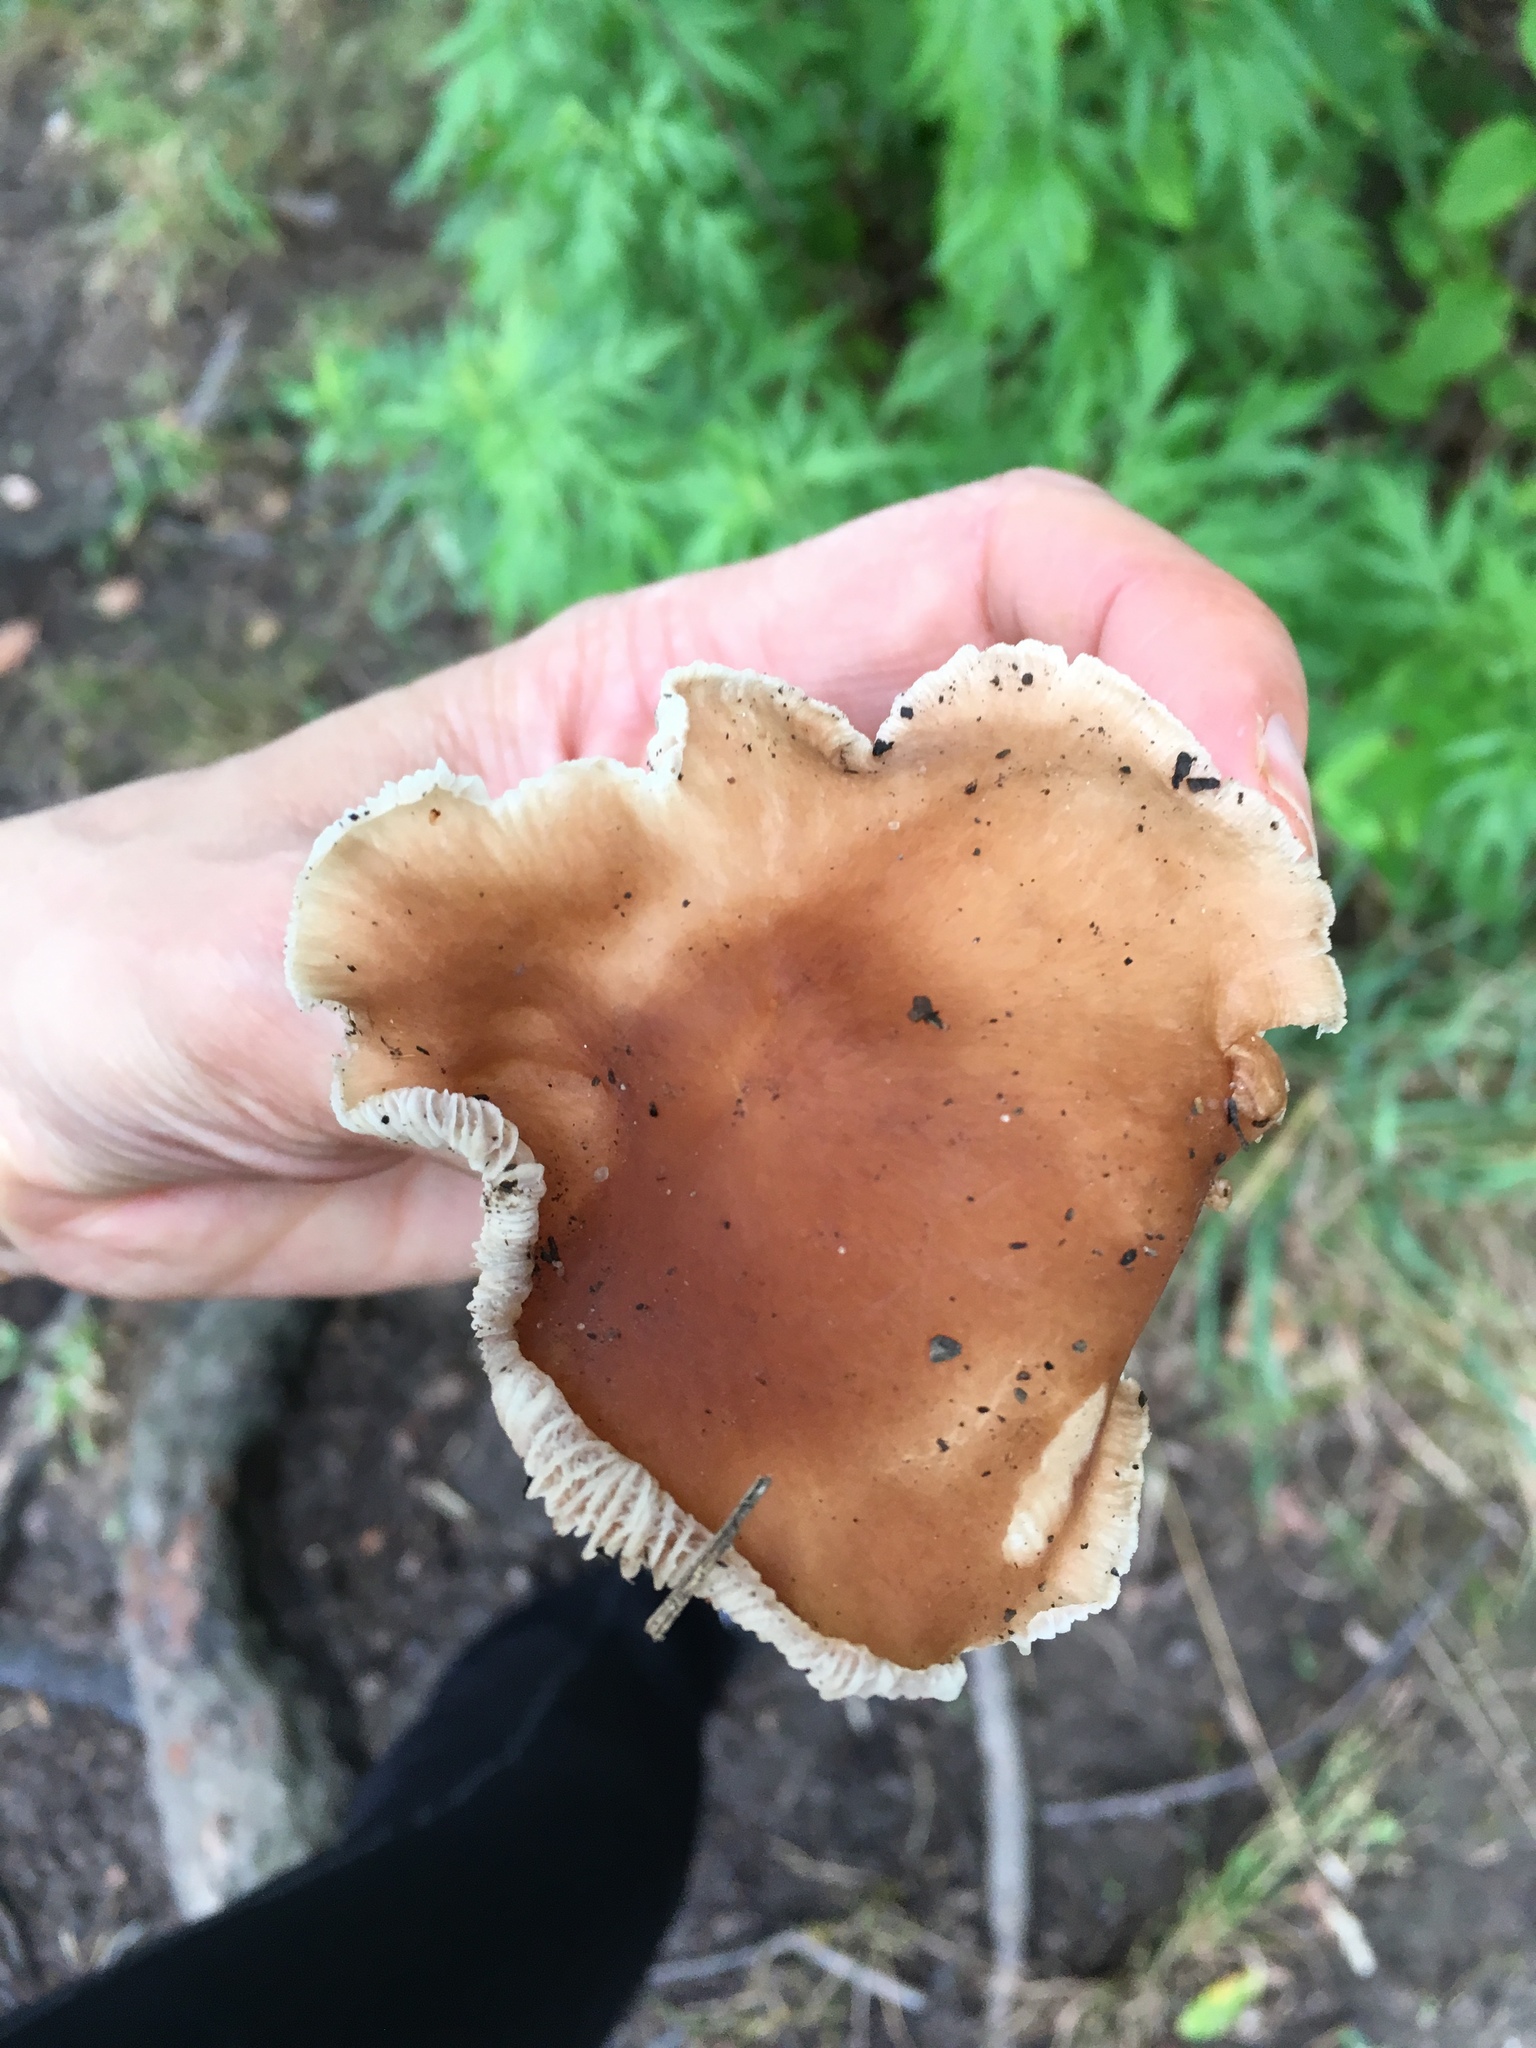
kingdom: Fungi
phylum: Basidiomycota
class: Agaricomycetes
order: Agaricales
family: Omphalotaceae
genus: Rhodocollybia
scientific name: Rhodocollybia butyracea
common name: Butter cap
